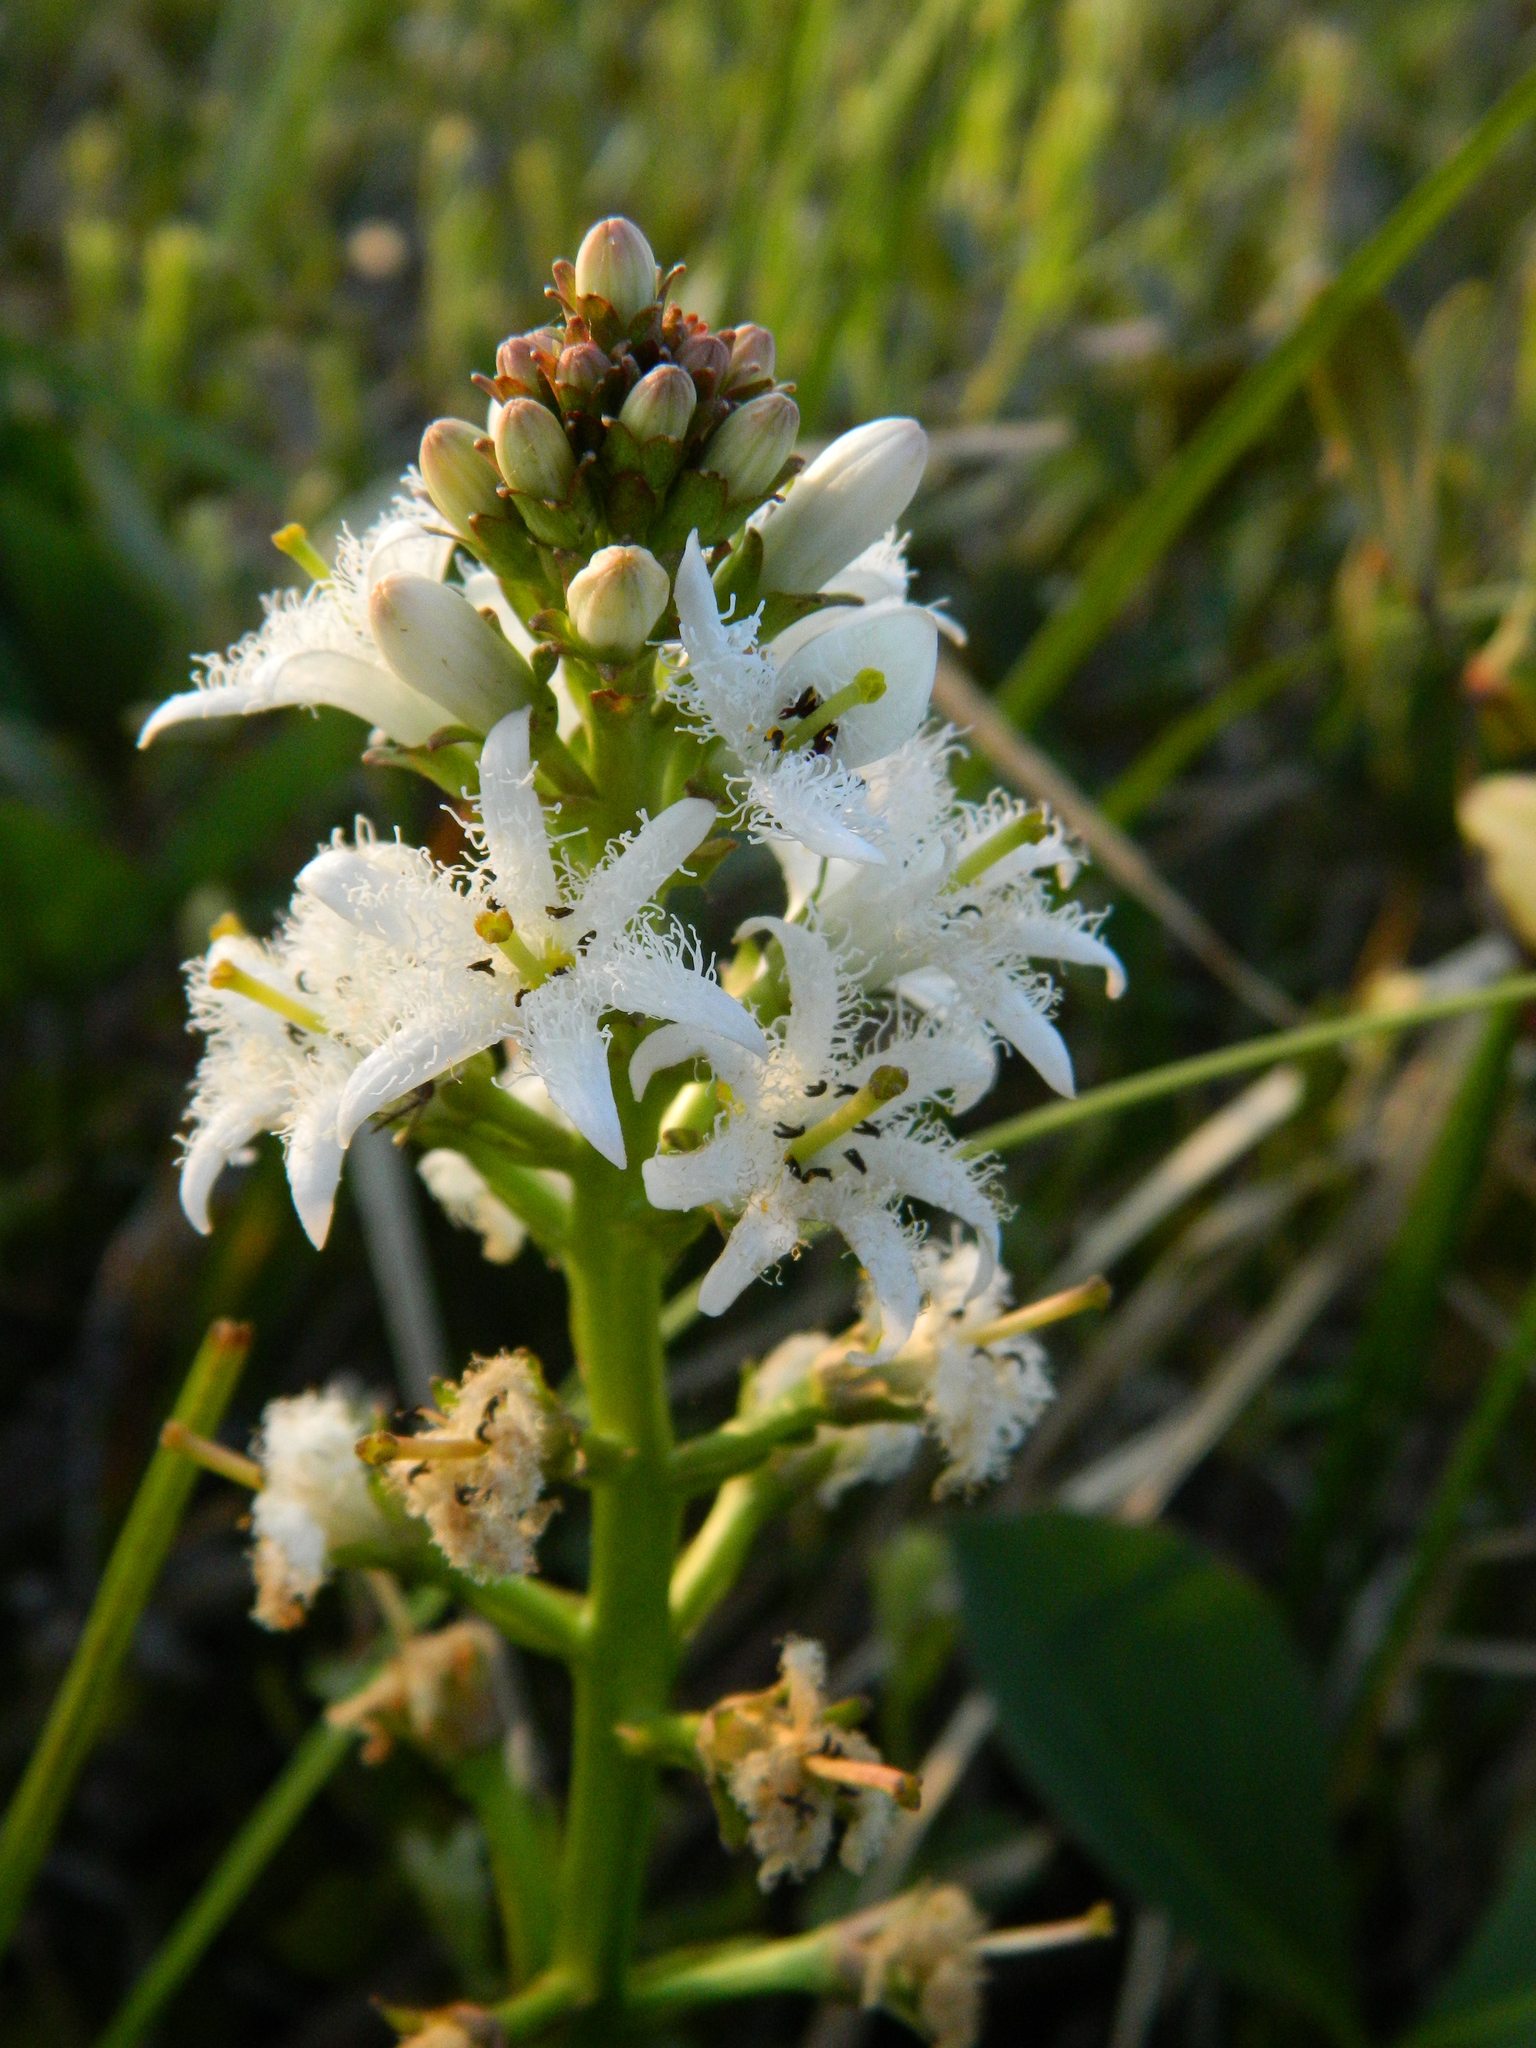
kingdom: Plantae
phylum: Tracheophyta
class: Magnoliopsida
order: Asterales
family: Menyanthaceae
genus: Menyanthes
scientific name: Menyanthes trifoliata
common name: Bogbean
